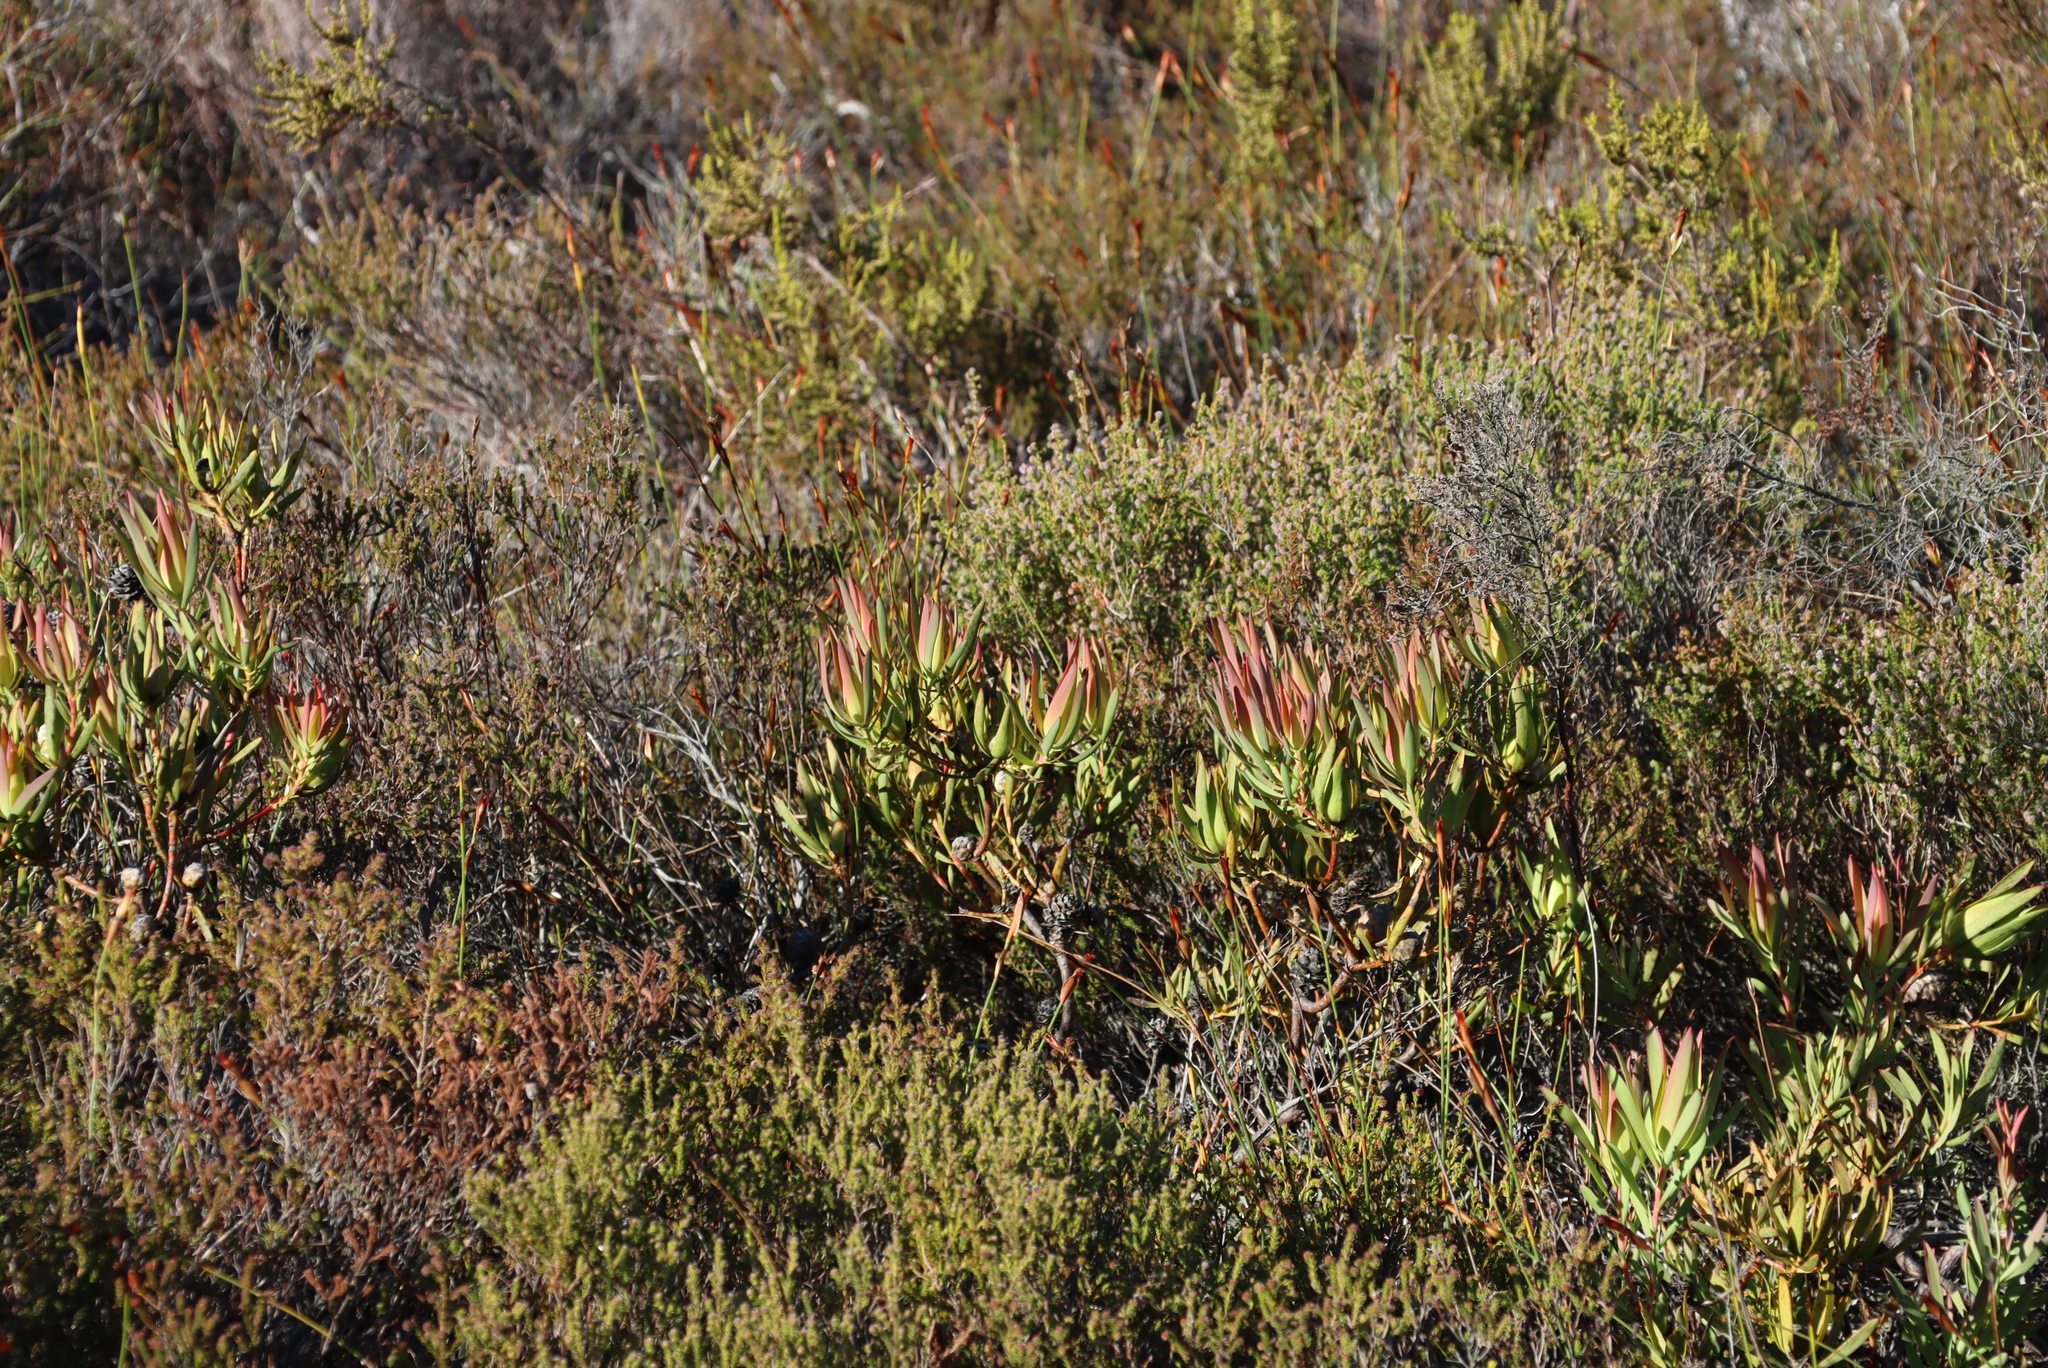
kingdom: Plantae
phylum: Tracheophyta
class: Magnoliopsida
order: Proteales
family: Proteaceae
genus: Leucadendron
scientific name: Leucadendron salignum
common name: Common sunshine conebush
